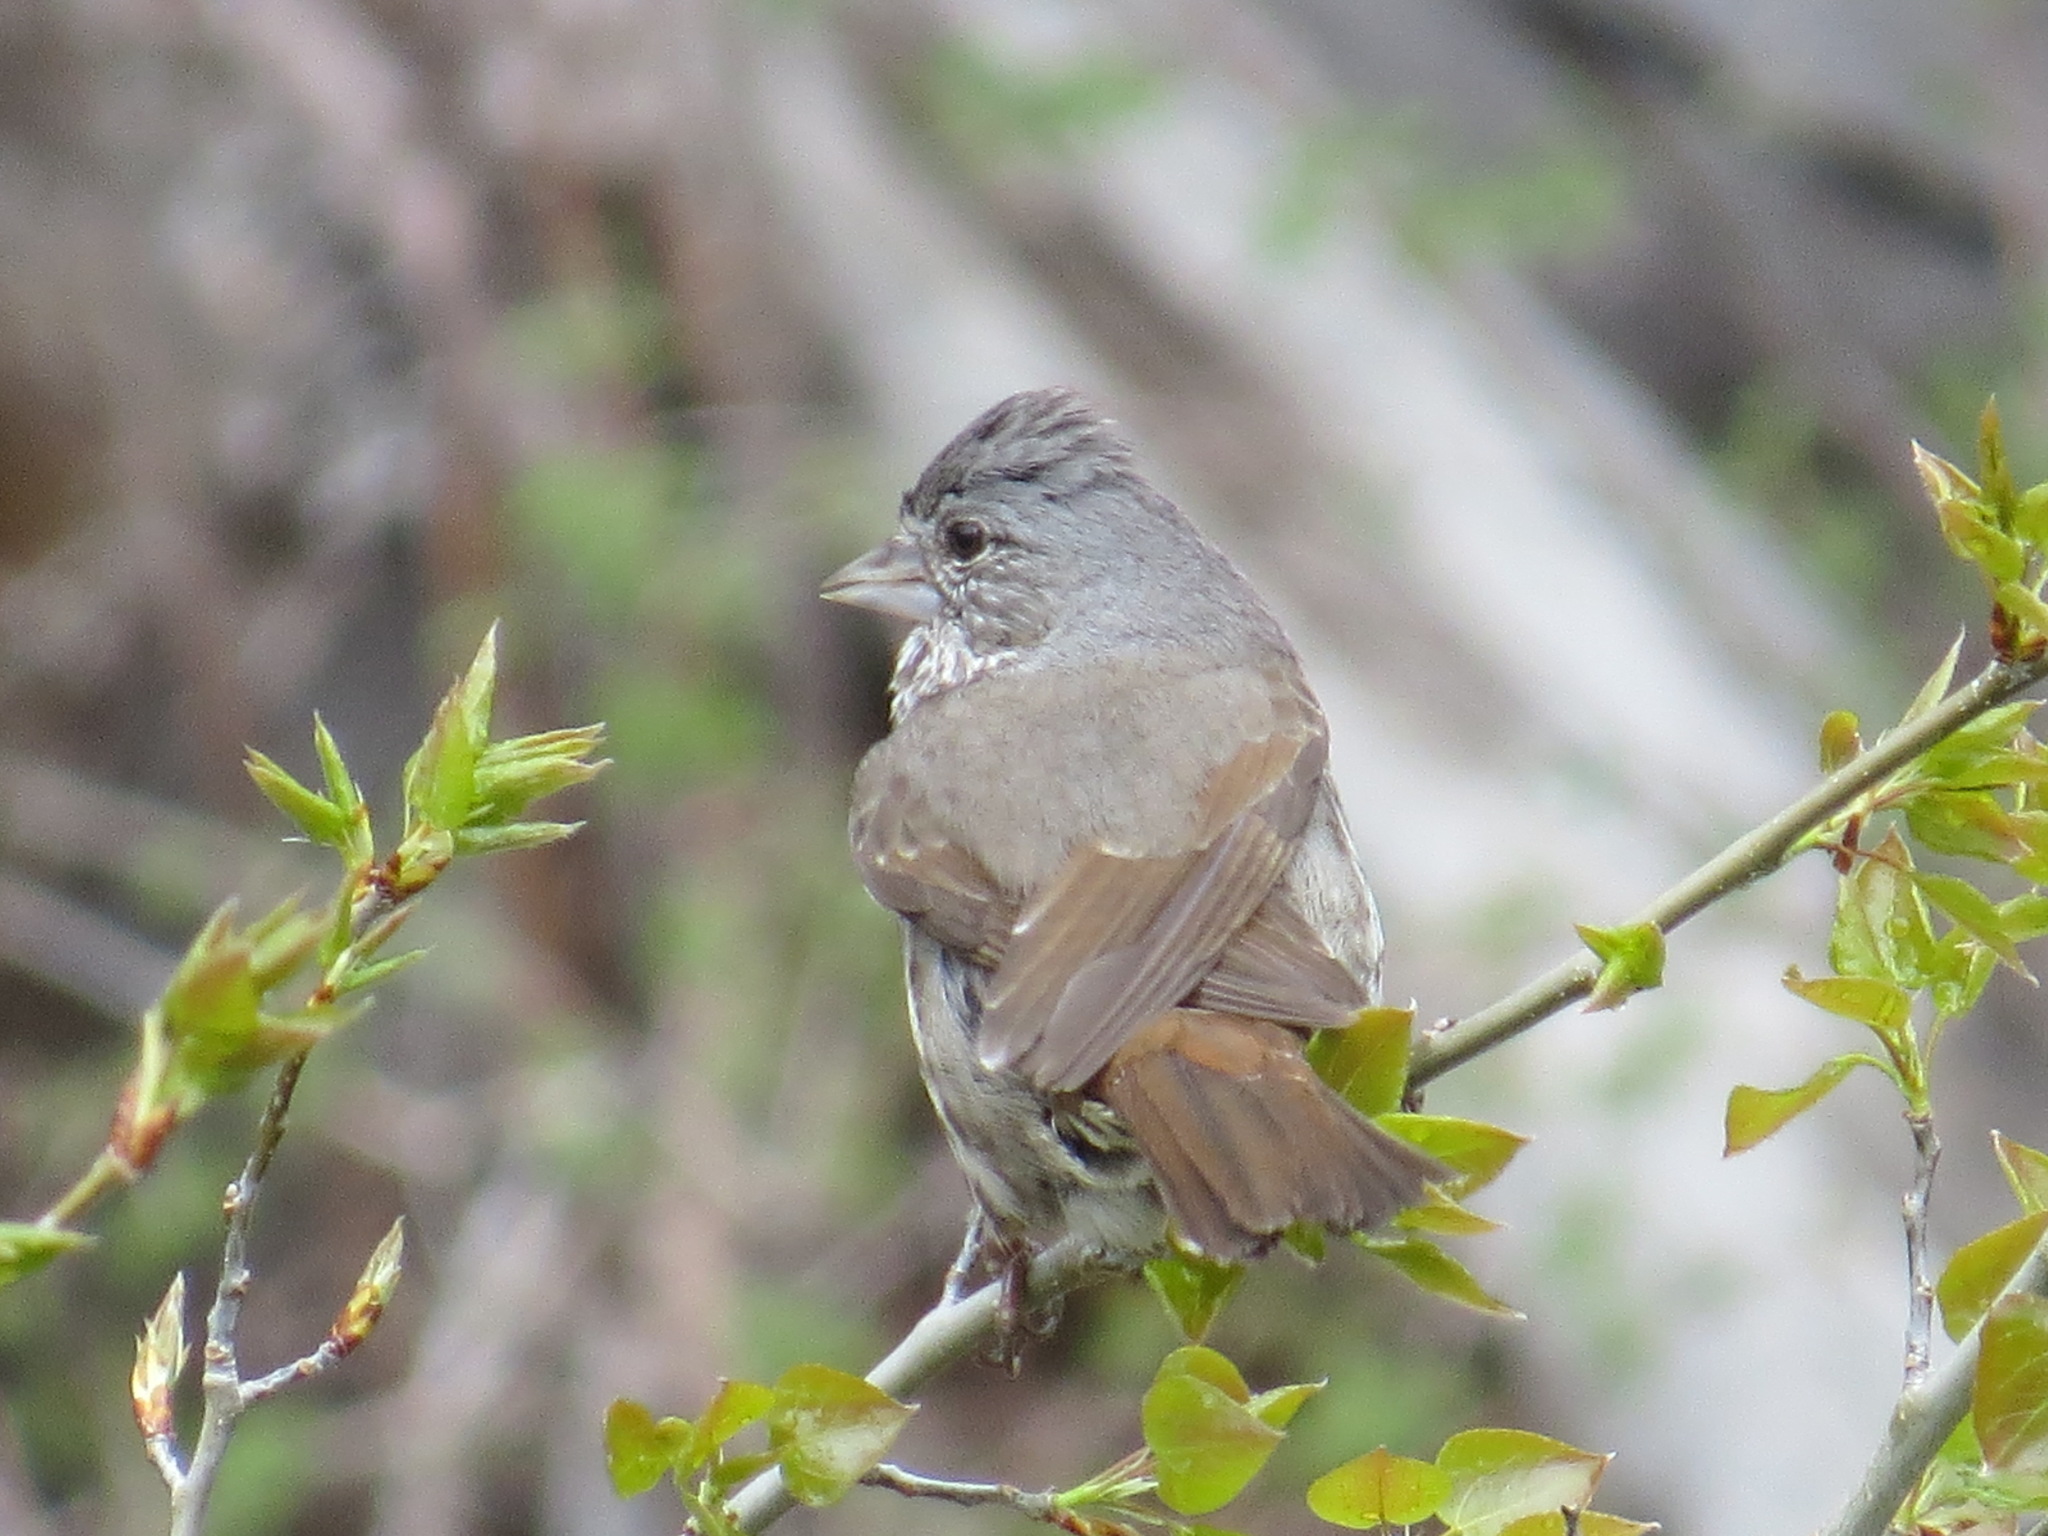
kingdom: Animalia
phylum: Chordata
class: Aves
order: Passeriformes
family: Passerellidae
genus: Passerella
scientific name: Passerella iliaca
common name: Fox sparrow
